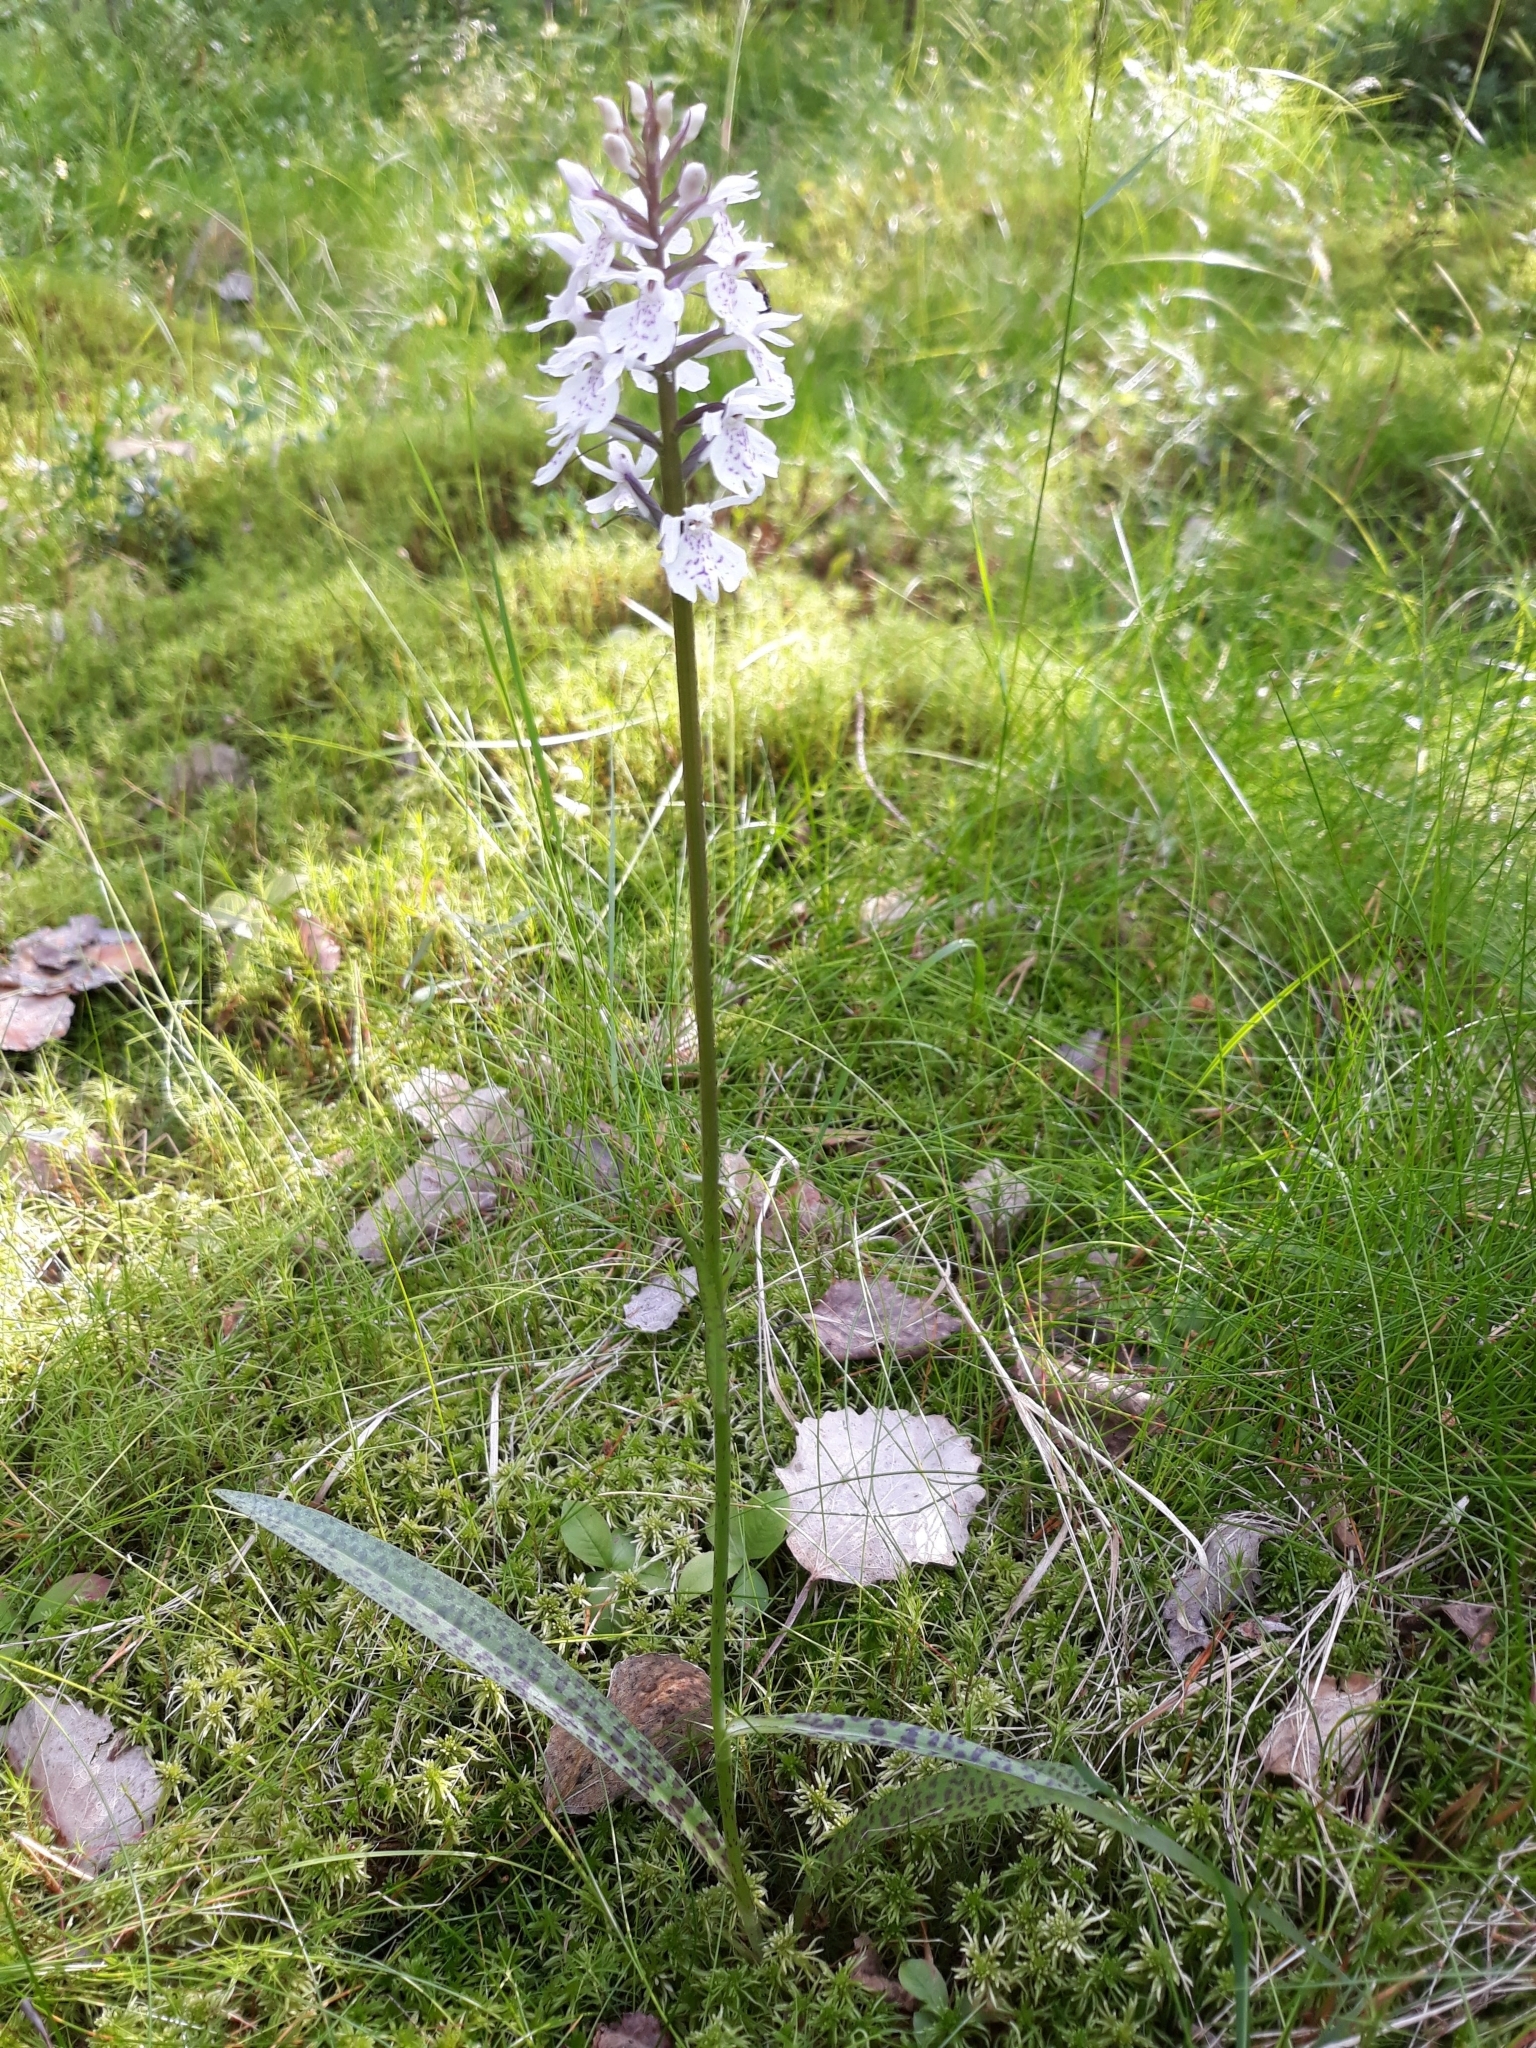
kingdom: Plantae
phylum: Tracheophyta
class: Liliopsida
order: Asparagales
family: Orchidaceae
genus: Dactylorhiza
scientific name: Dactylorhiza maculata
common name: Heath spotted-orchid
